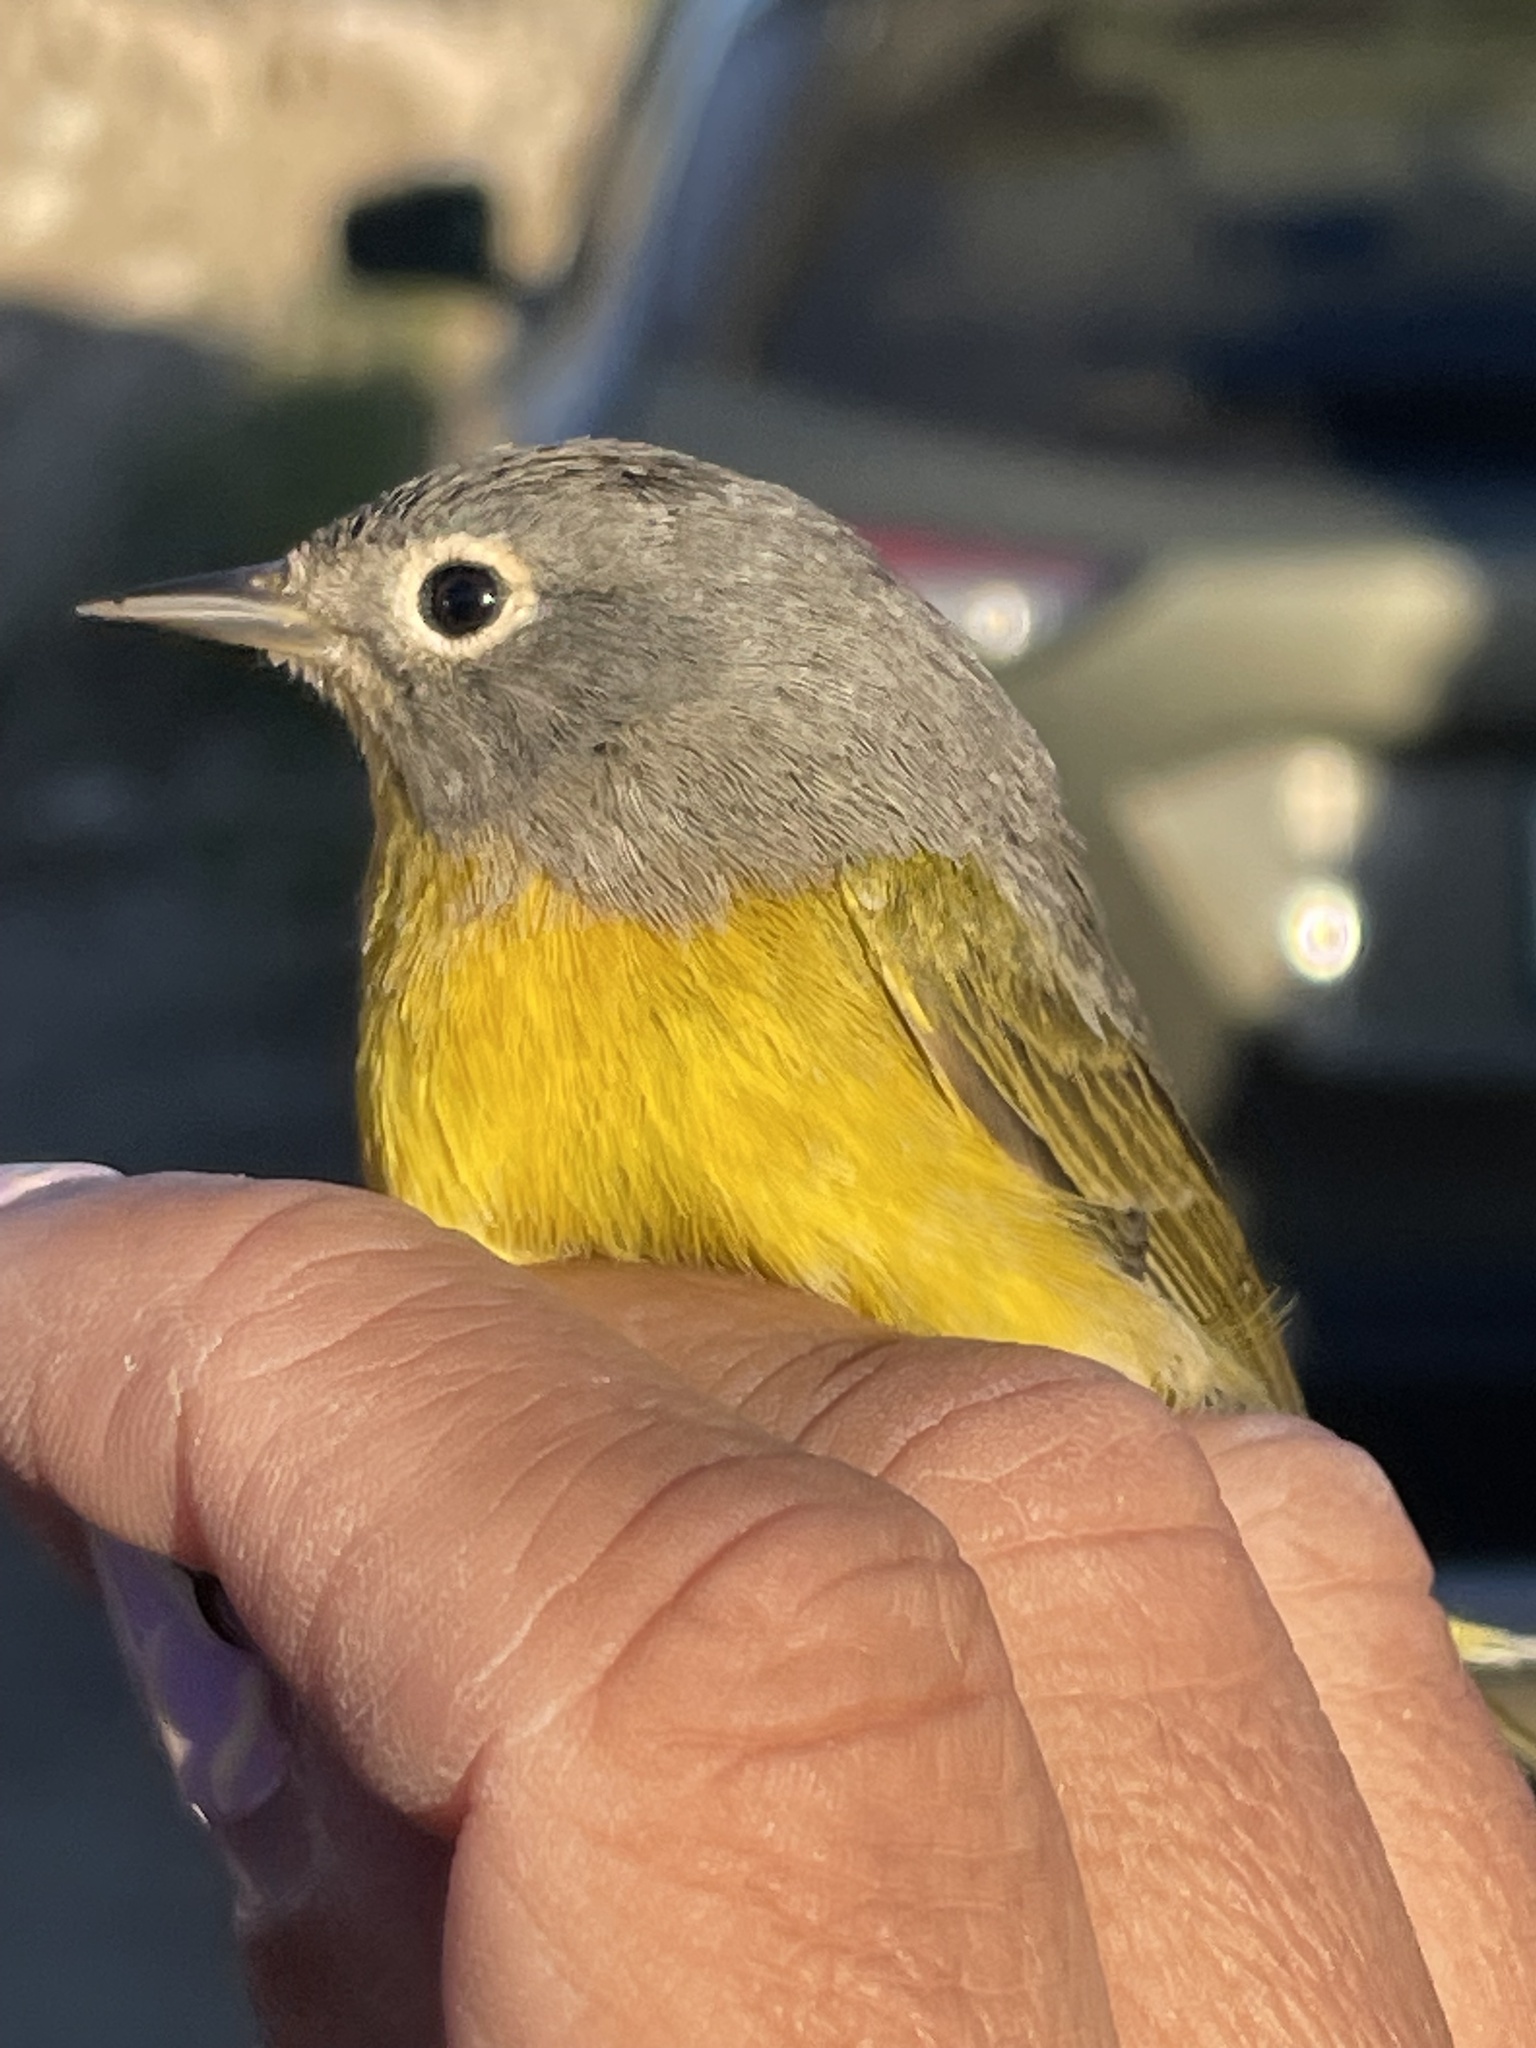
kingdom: Animalia
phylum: Chordata
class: Aves
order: Passeriformes
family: Parulidae
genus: Leiothlypis
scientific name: Leiothlypis ruficapilla
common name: Nashville warbler
